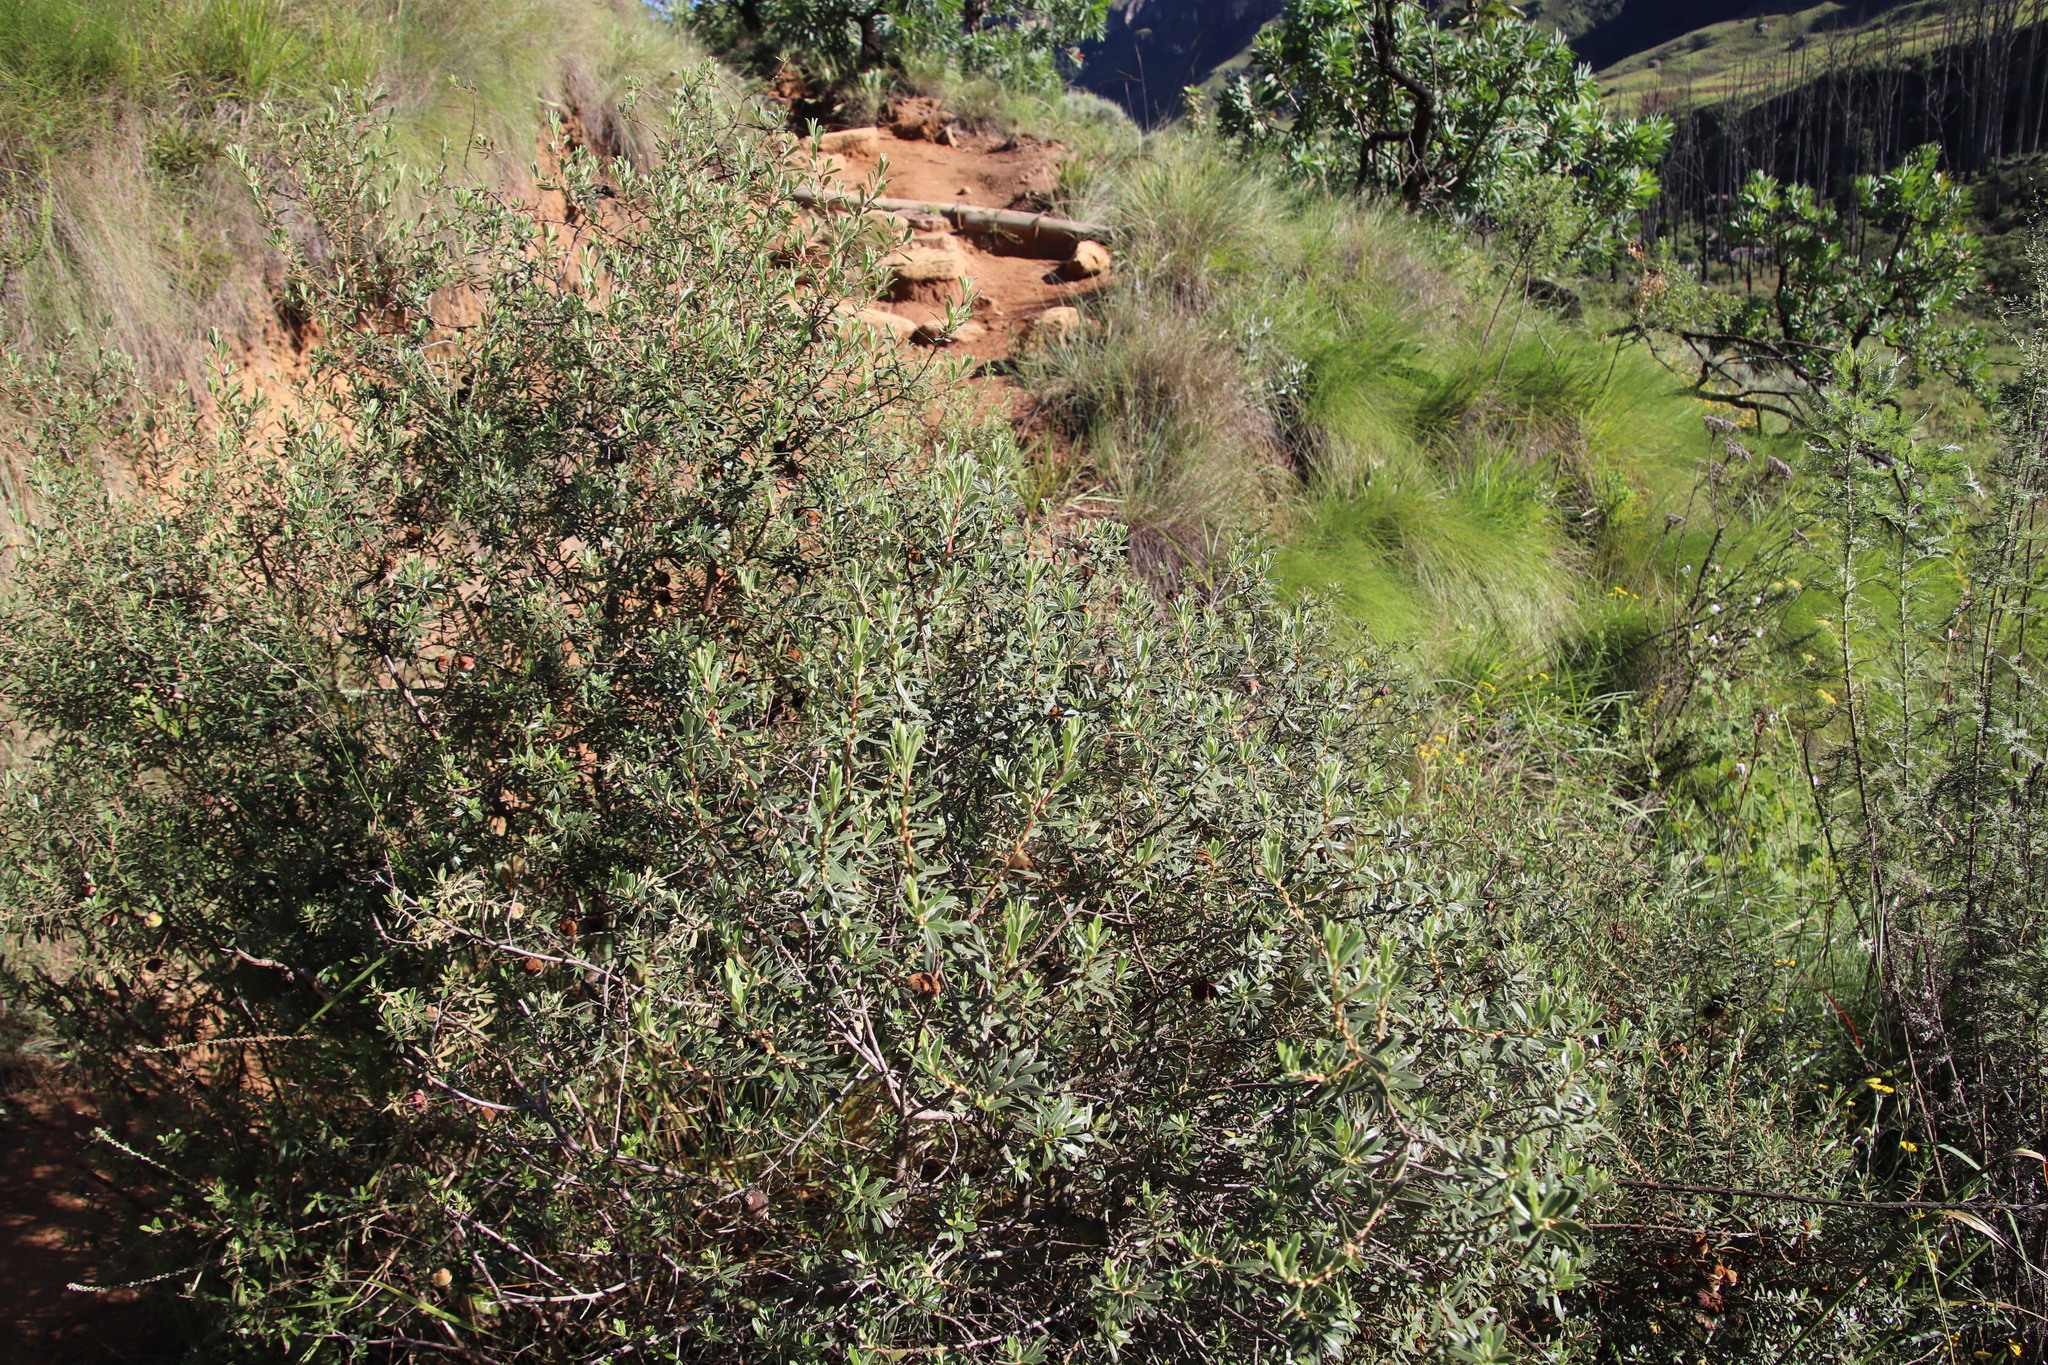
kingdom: Plantae
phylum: Tracheophyta
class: Magnoliopsida
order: Ericales
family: Ebenaceae
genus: Diospyros
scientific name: Diospyros pubescens
